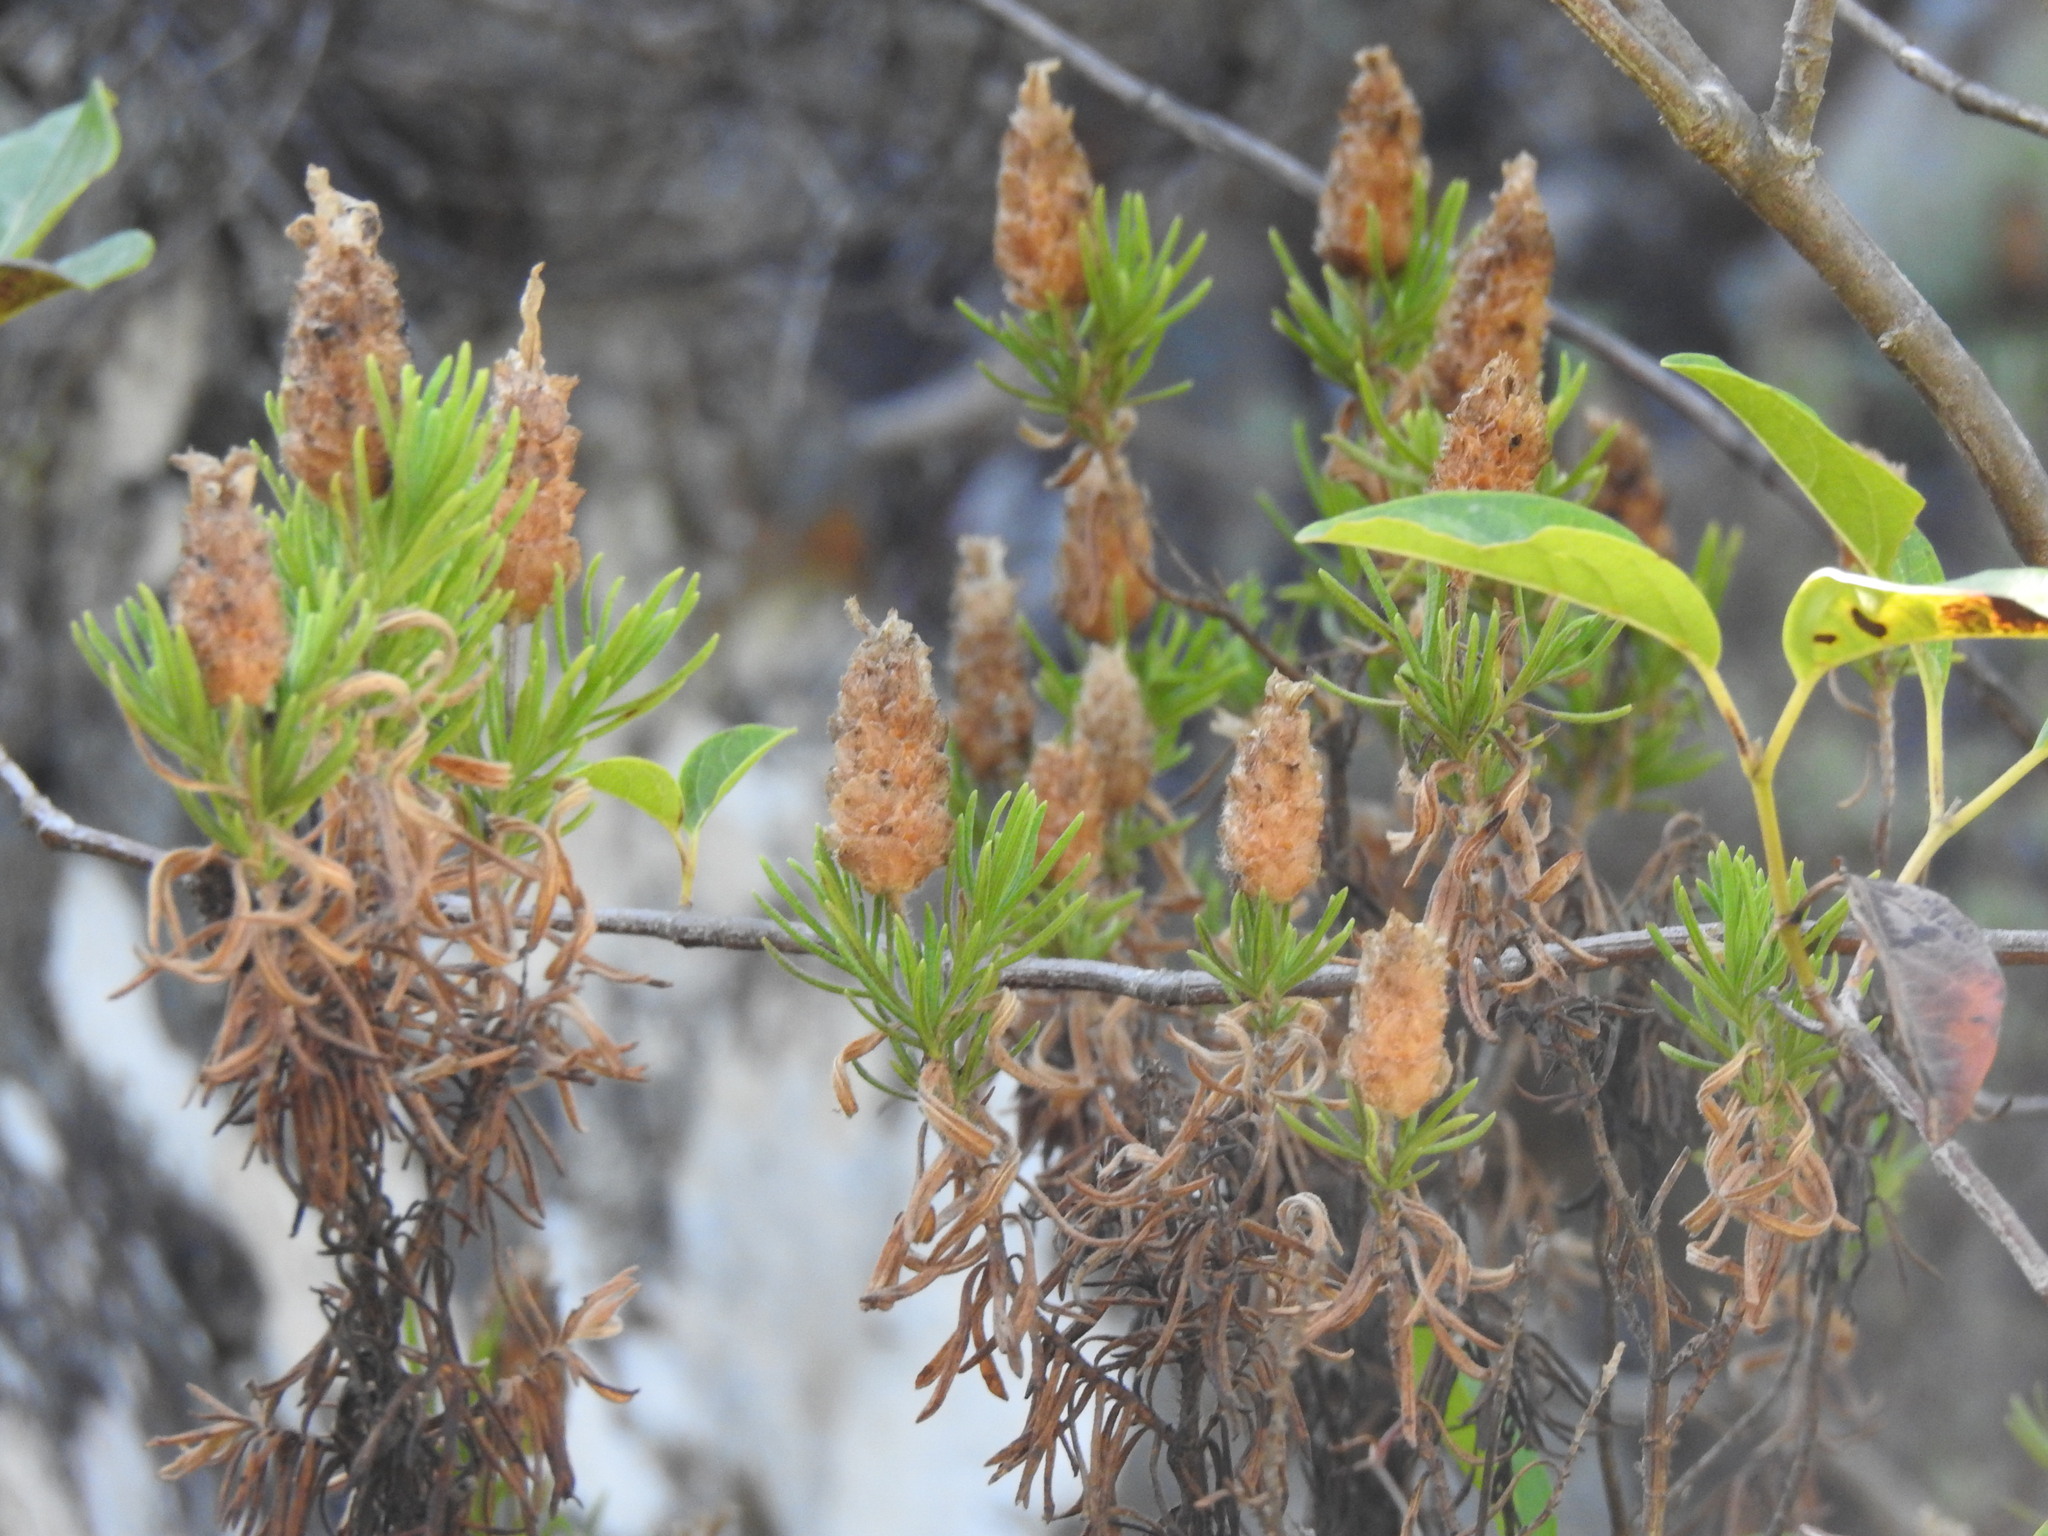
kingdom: Plantae
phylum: Tracheophyta
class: Magnoliopsida
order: Lamiales
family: Lamiaceae
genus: Lavandula
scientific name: Lavandula viridis
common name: Green spanish lavender
